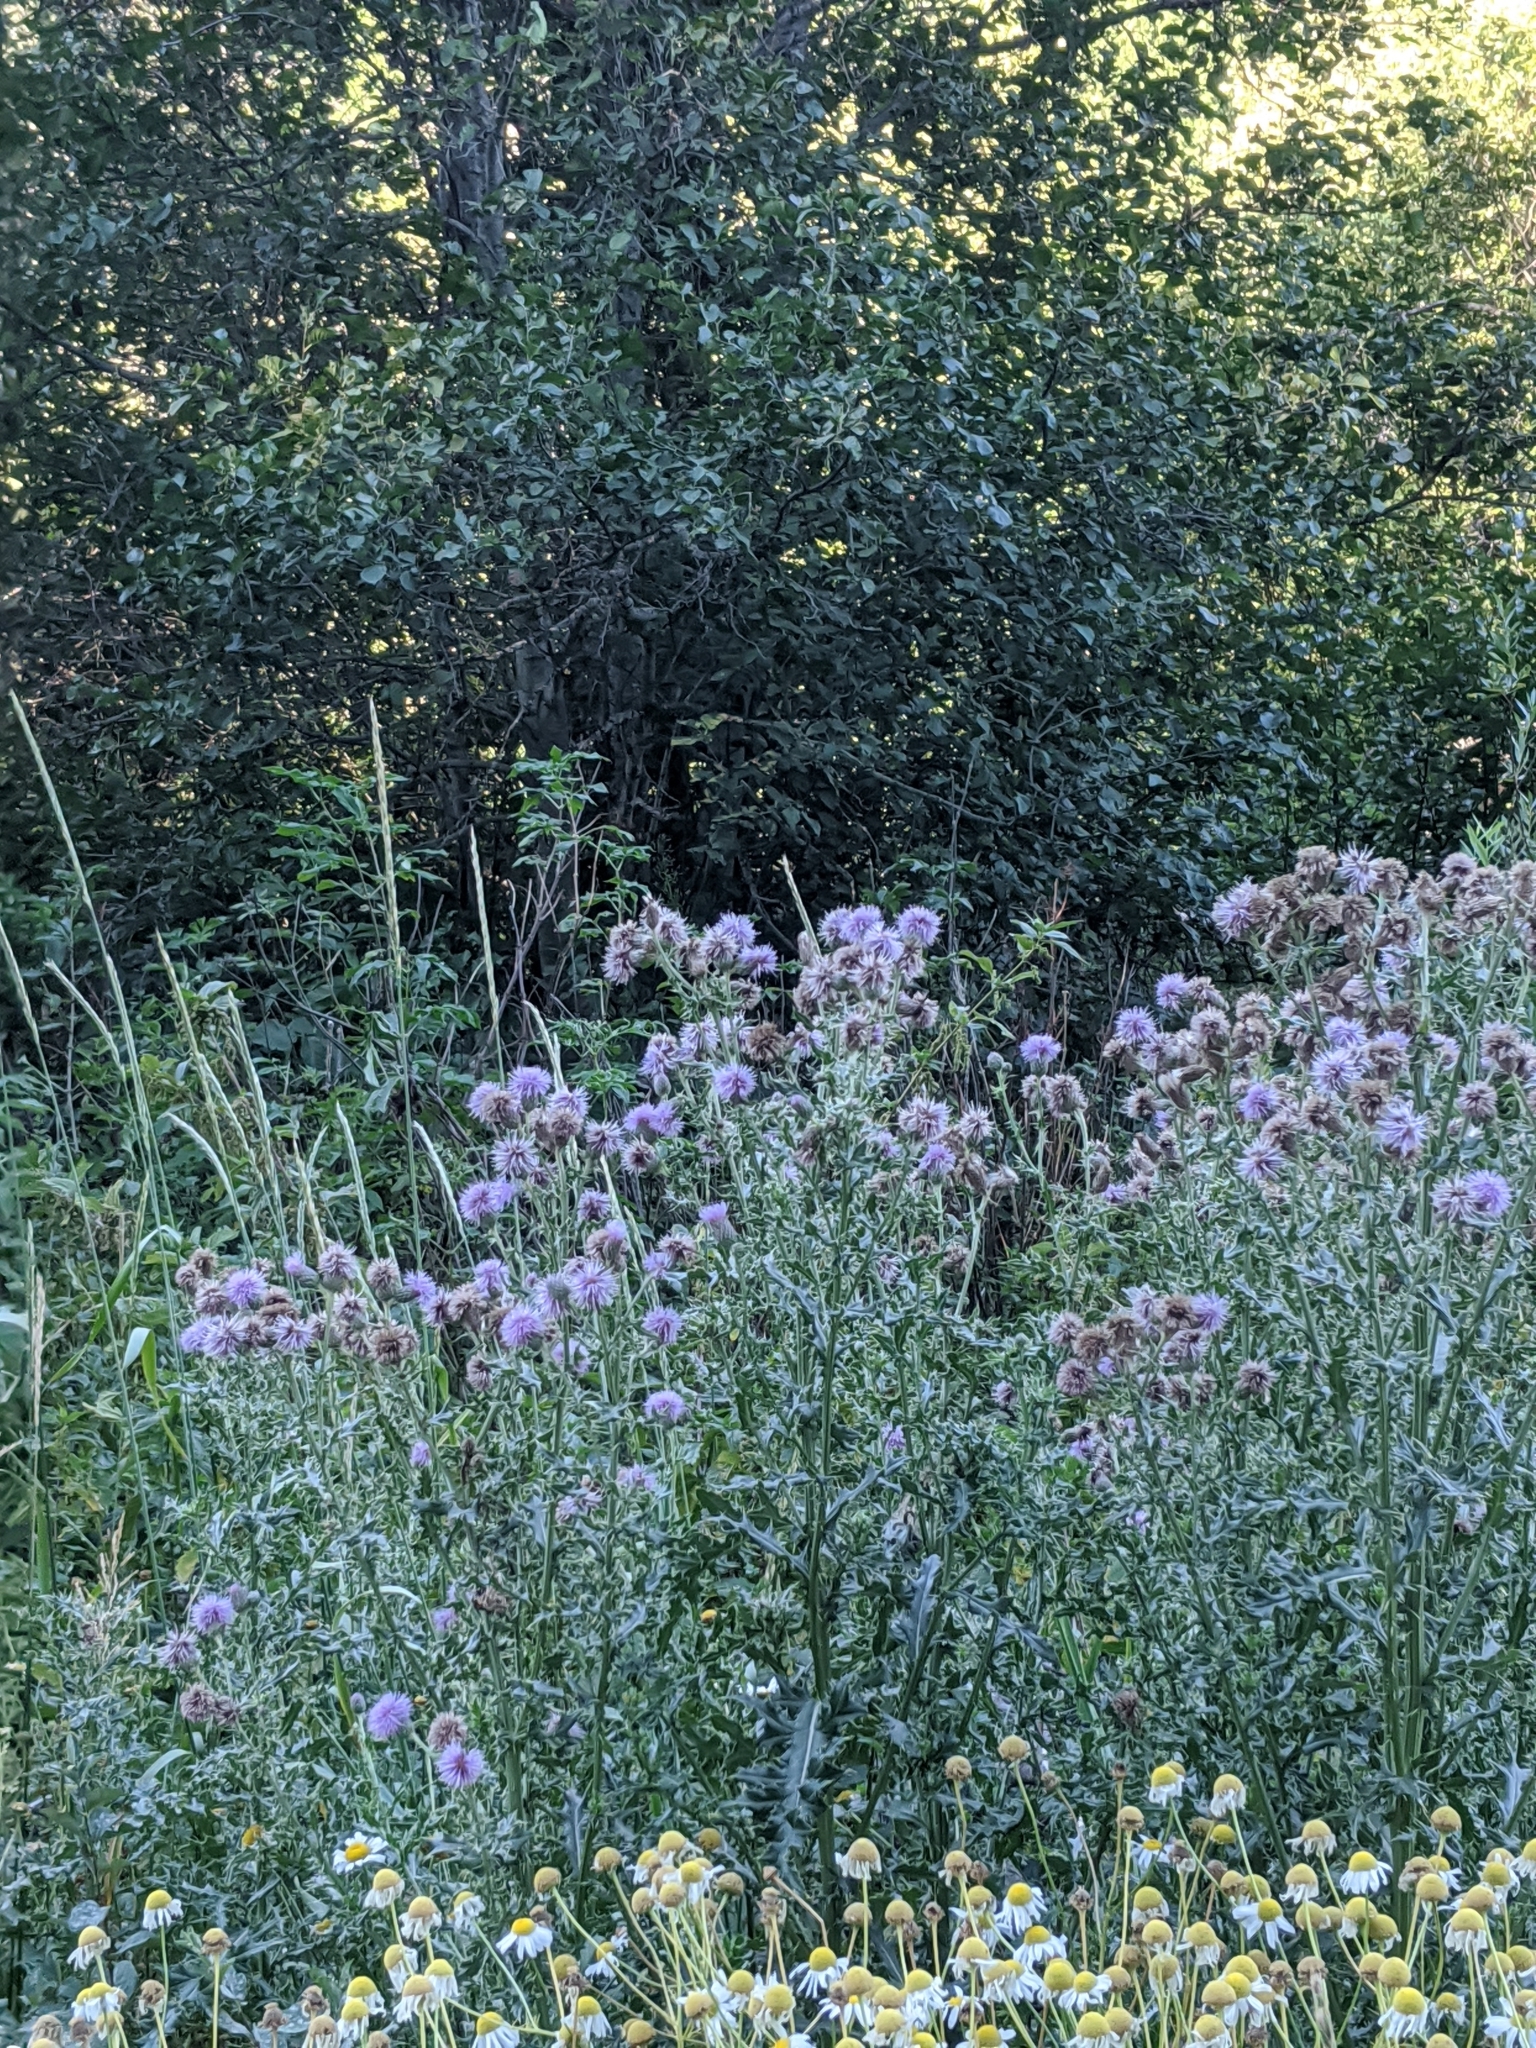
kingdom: Plantae
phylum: Tracheophyta
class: Magnoliopsida
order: Asterales
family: Asteraceae
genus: Cirsium
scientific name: Cirsium arvense
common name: Creeping thistle
